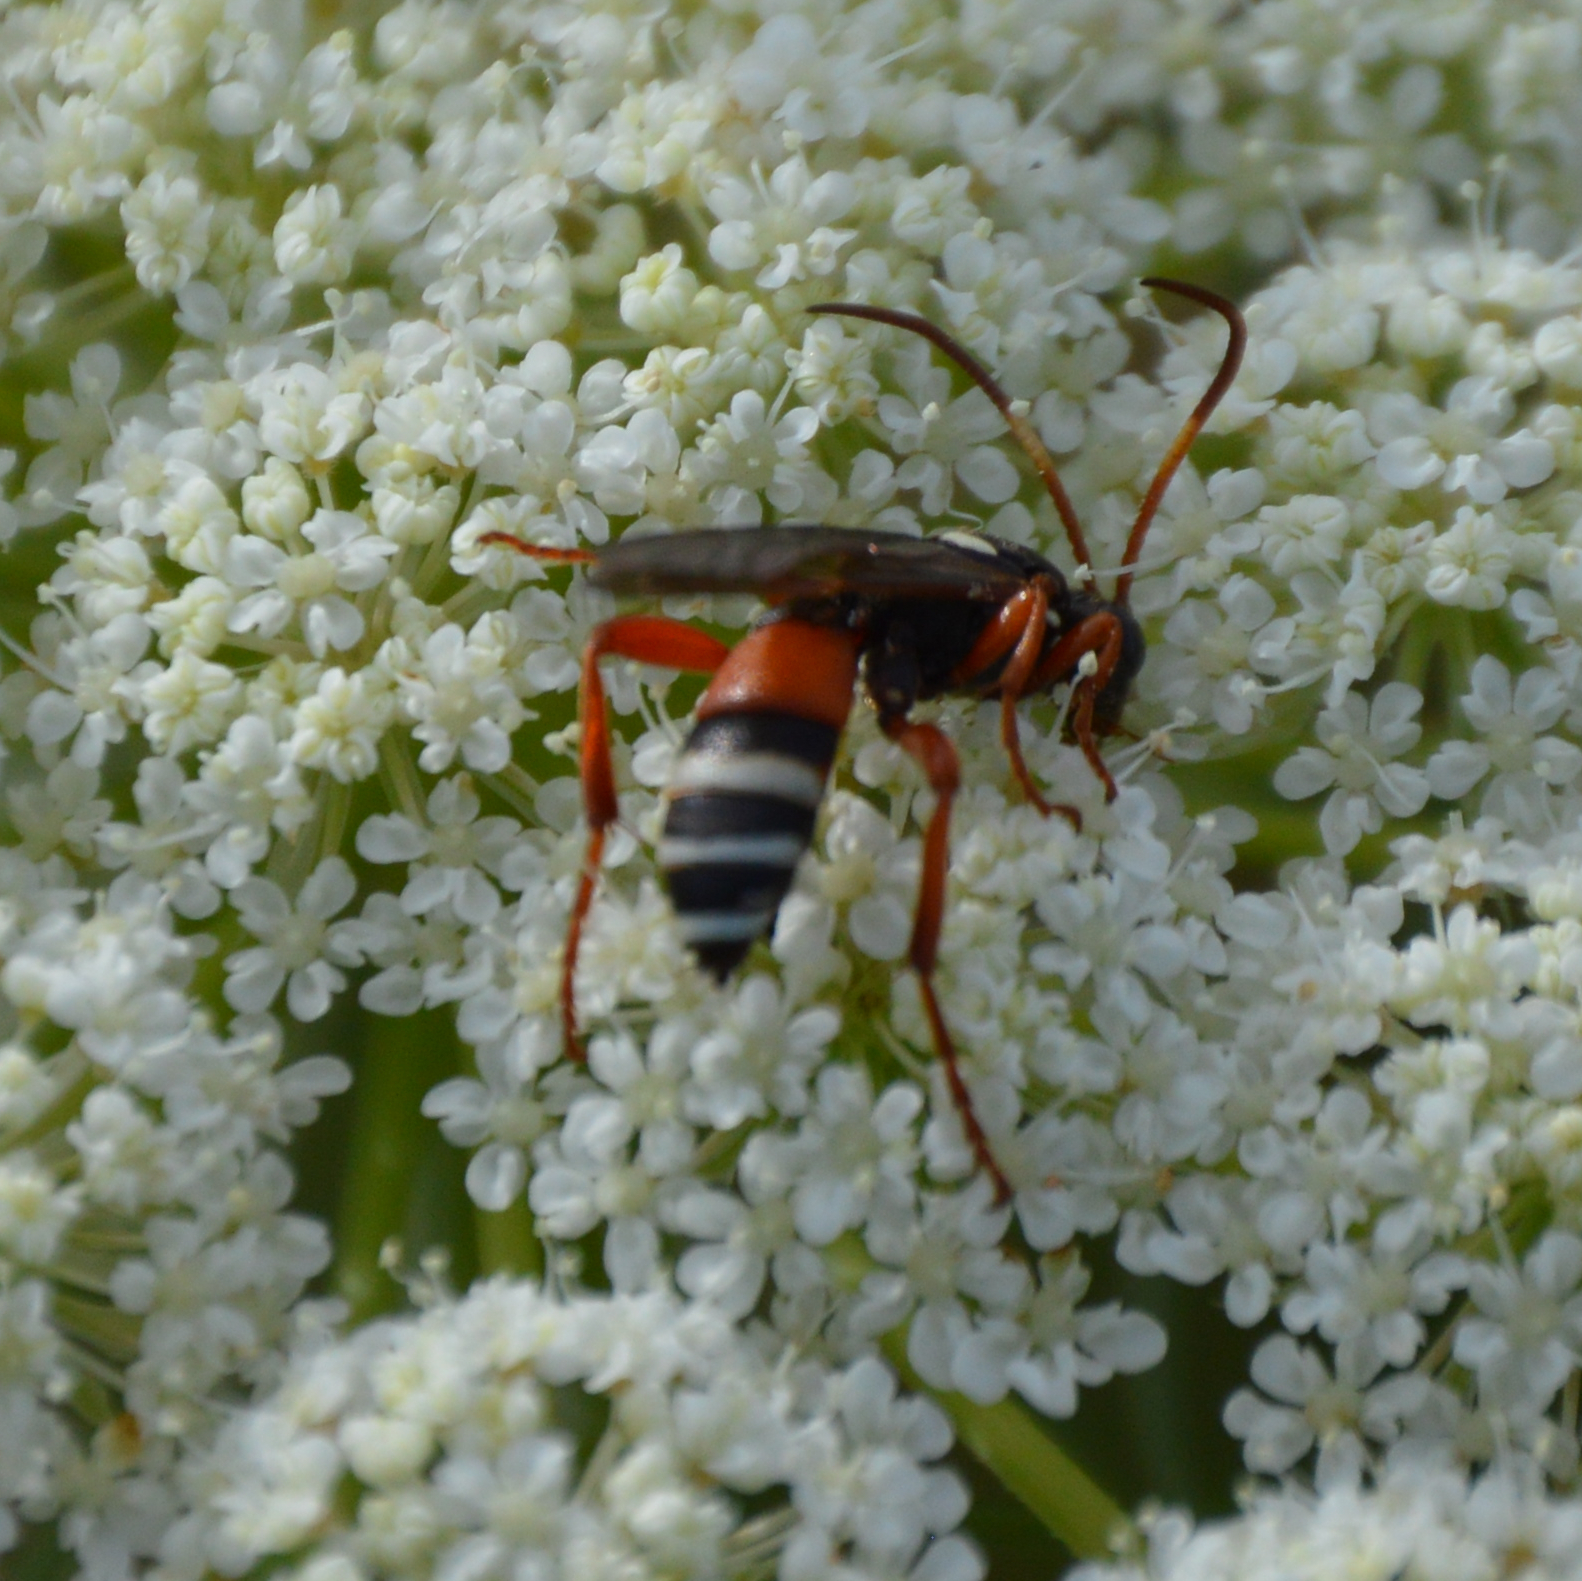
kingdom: Animalia
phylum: Arthropoda
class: Insecta
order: Hymenoptera
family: Ichneumonidae
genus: Ichneumon
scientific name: Ichneumon ambulatorius
